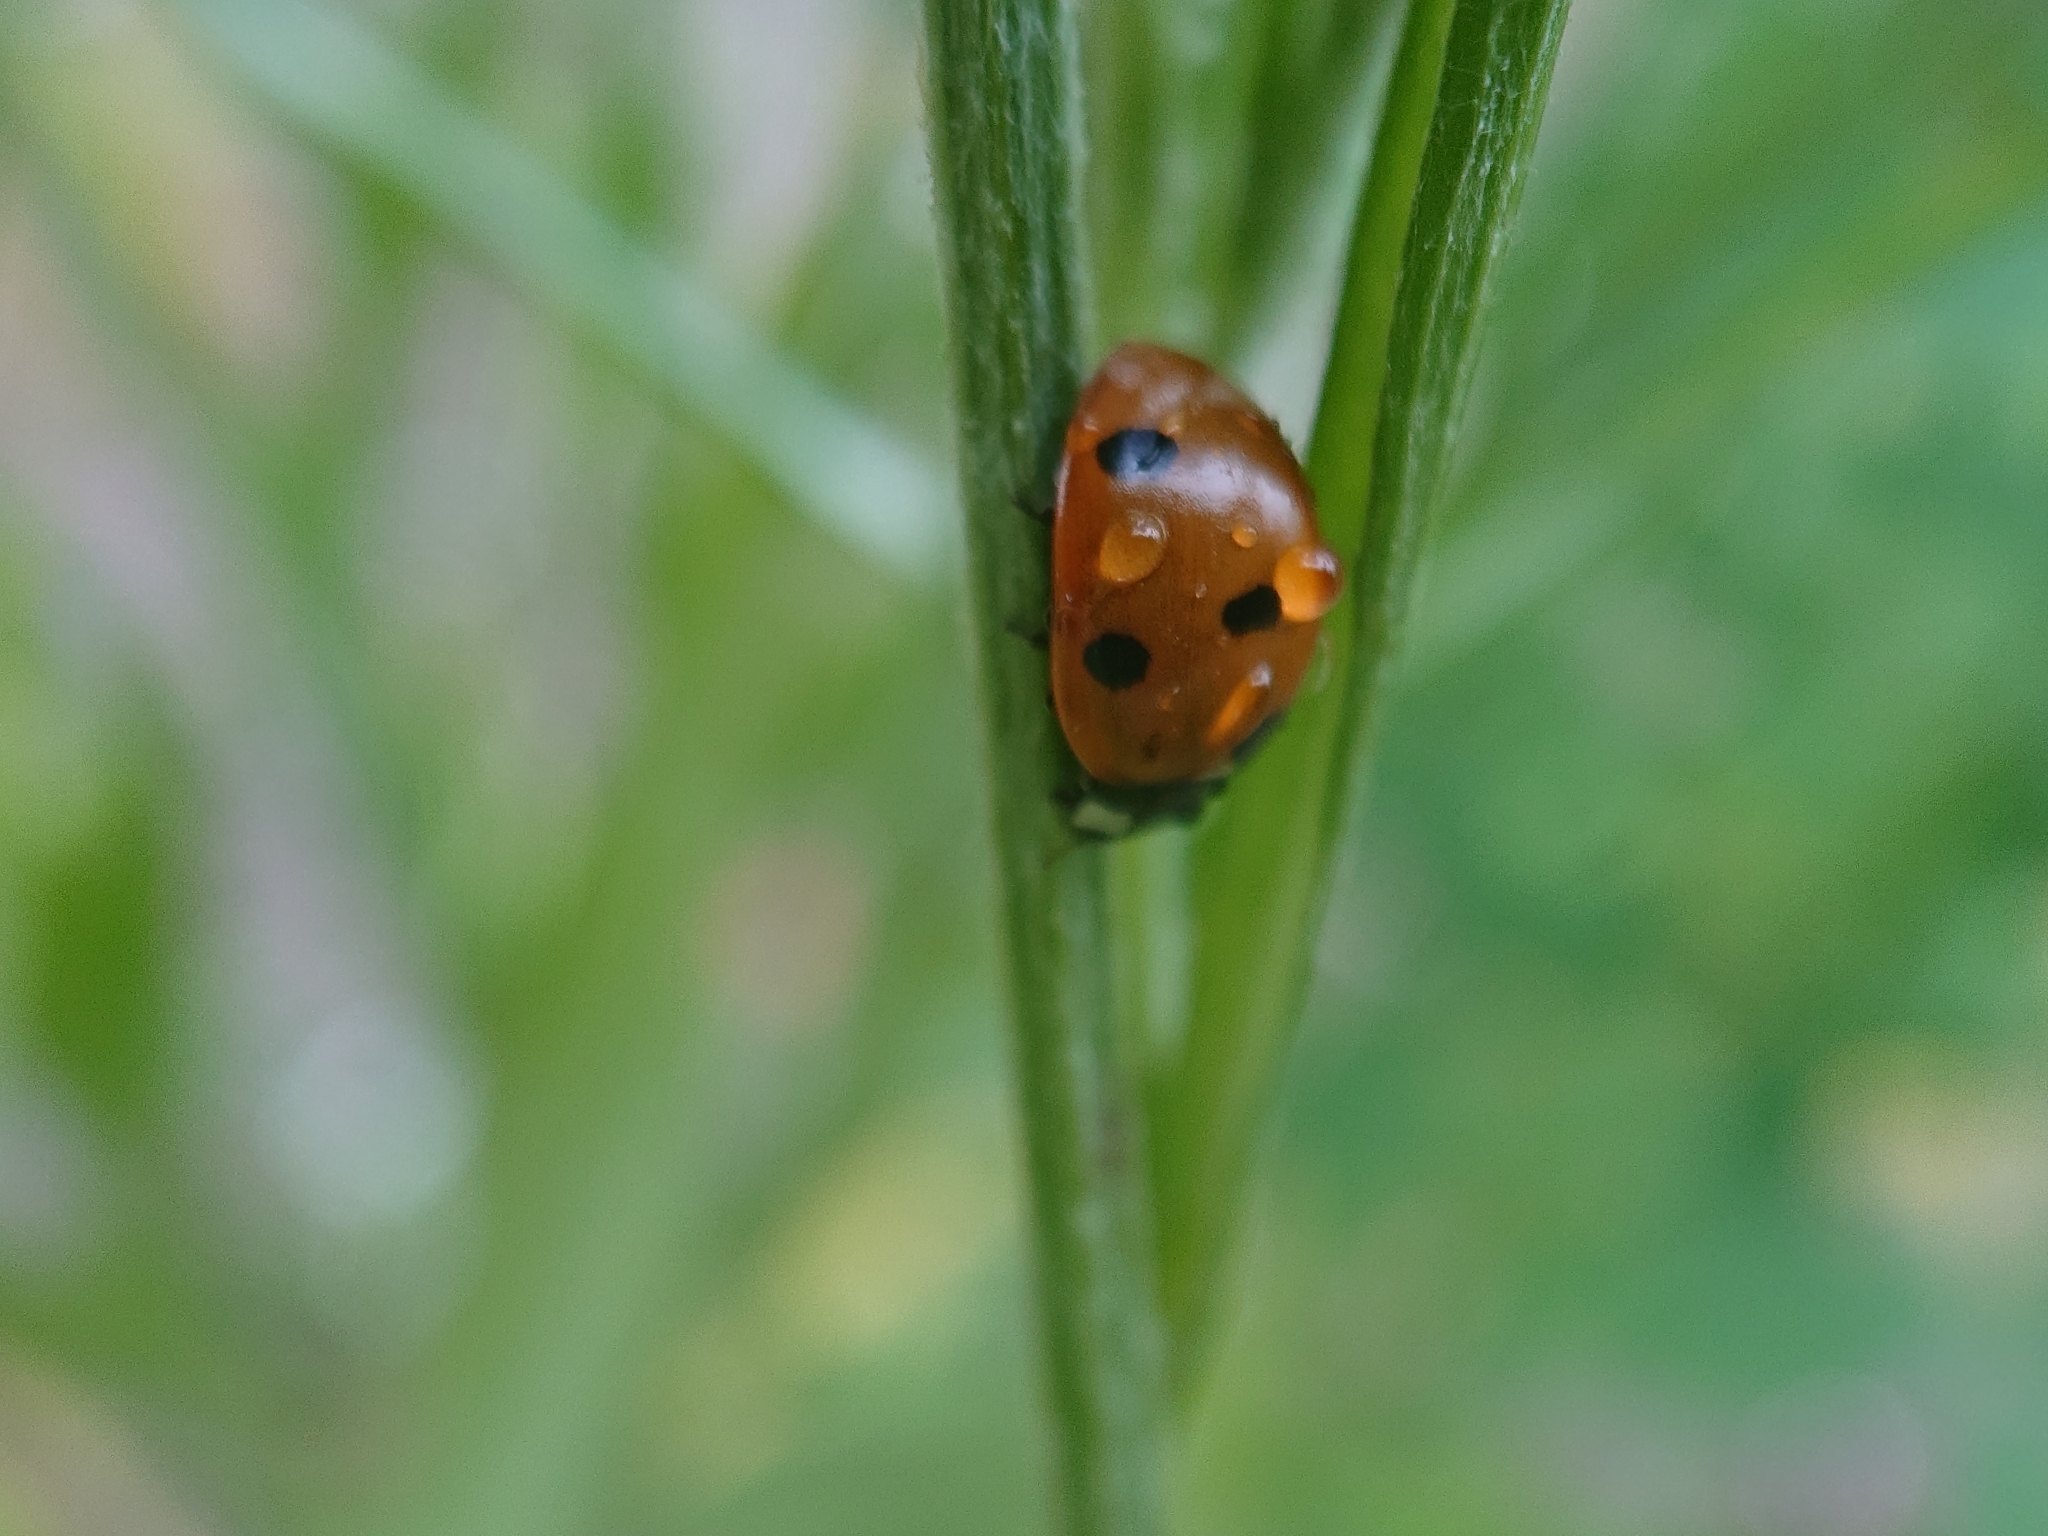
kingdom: Animalia
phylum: Arthropoda
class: Insecta
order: Coleoptera
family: Coccinellidae
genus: Coccinella
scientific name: Coccinella septempunctata
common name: Sevenspotted lady beetle
